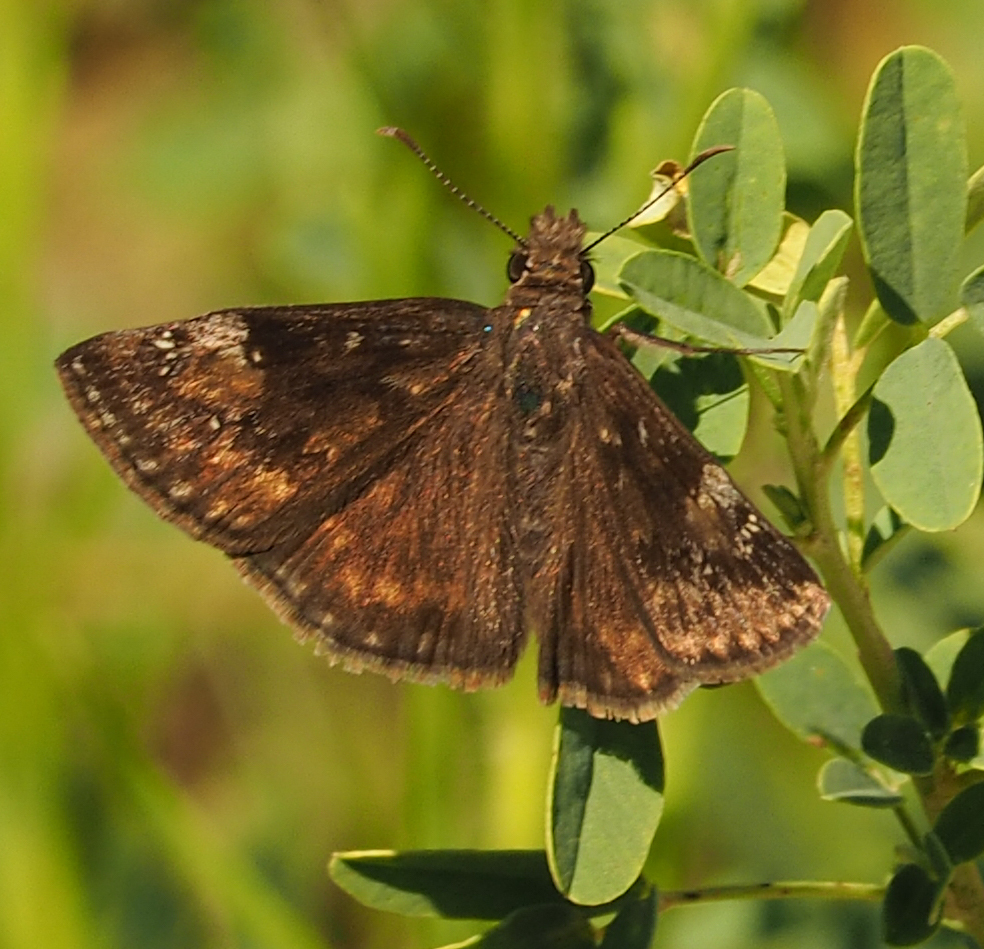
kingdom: Animalia
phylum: Arthropoda
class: Insecta
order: Lepidoptera
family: Hesperiidae
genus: Erynnis
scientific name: Erynnis baptisiae
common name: Wild indigo duskywing
